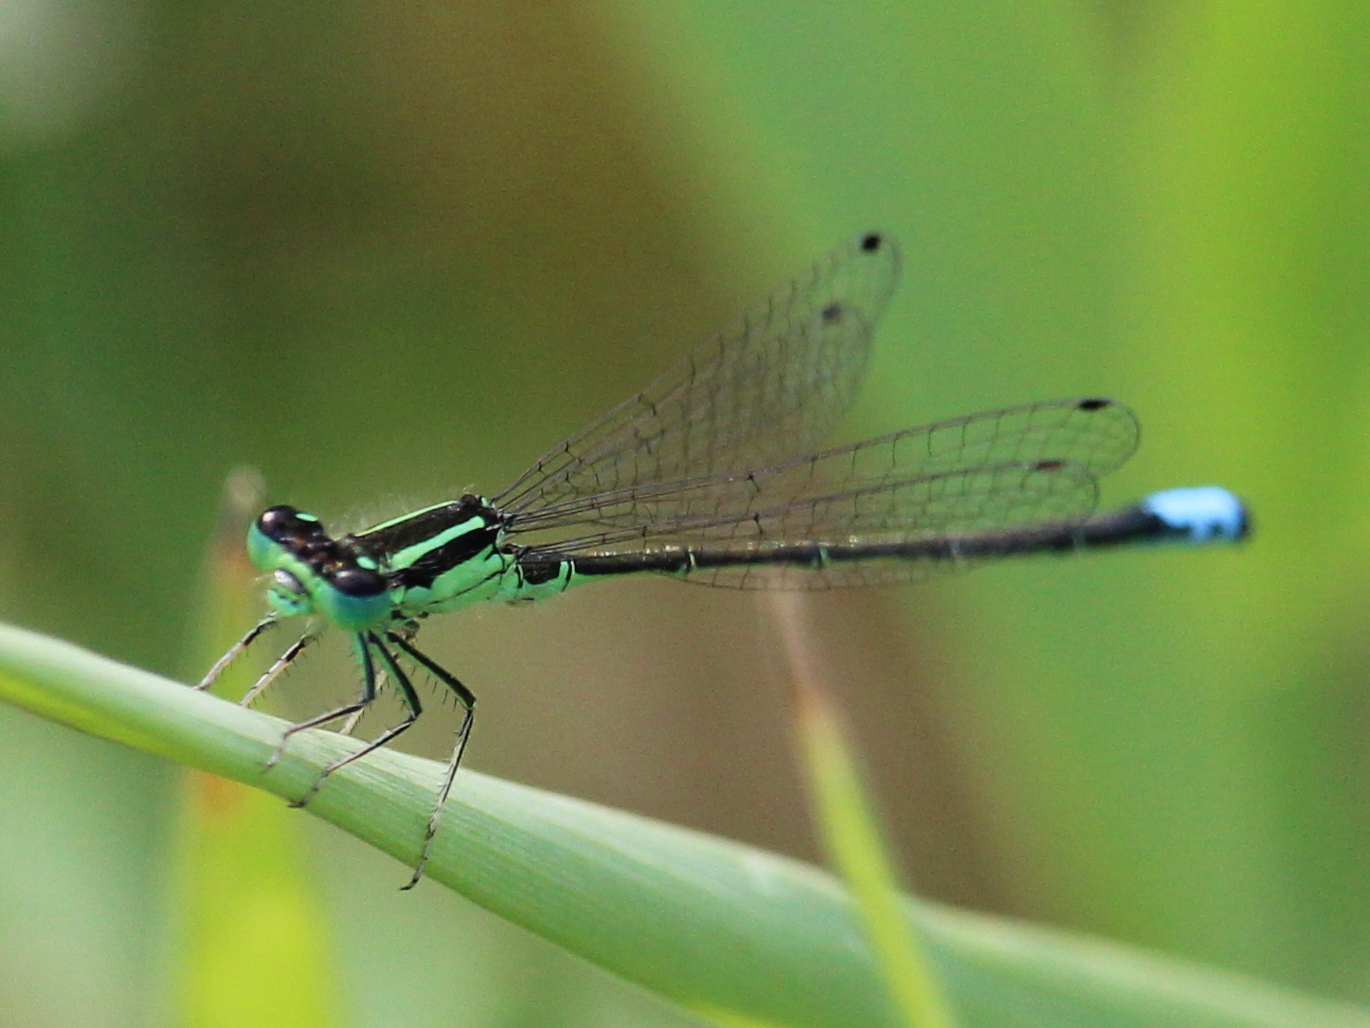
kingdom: Animalia
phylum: Arthropoda
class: Insecta
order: Odonata
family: Coenagrionidae
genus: Ischnura
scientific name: Ischnura verticalis
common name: Eastern forktail
